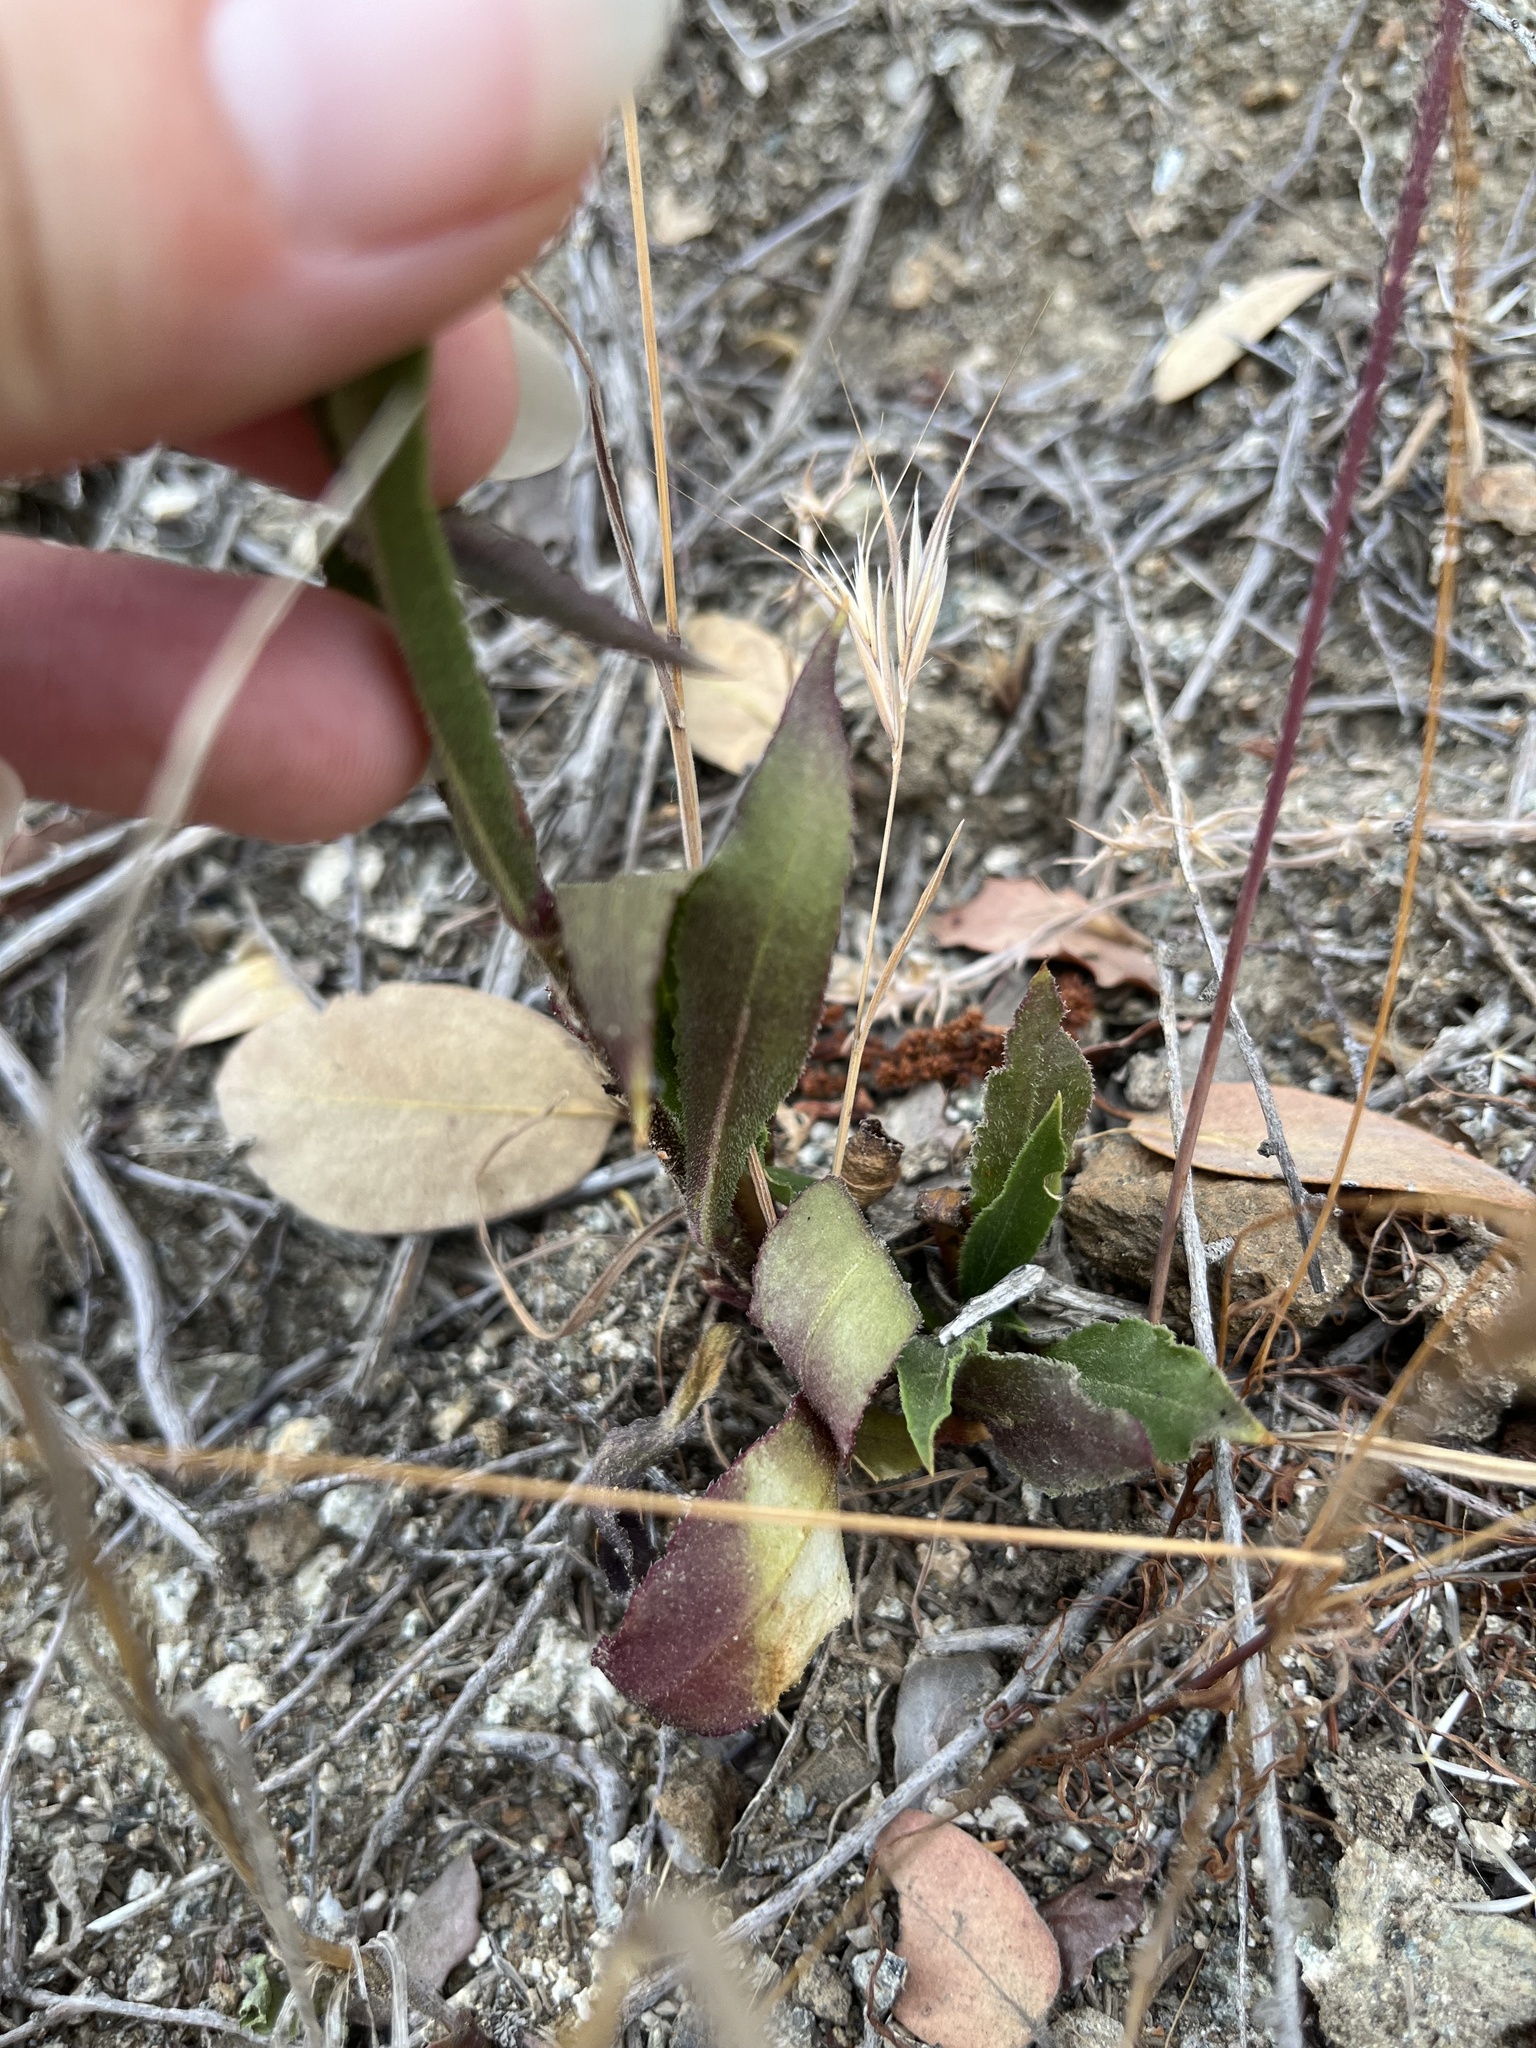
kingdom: Plantae
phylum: Tracheophyta
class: Magnoliopsida
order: Caryophyllales
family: Caryophyllaceae
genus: Silene
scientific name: Silene laciniata
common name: Indian-pink
